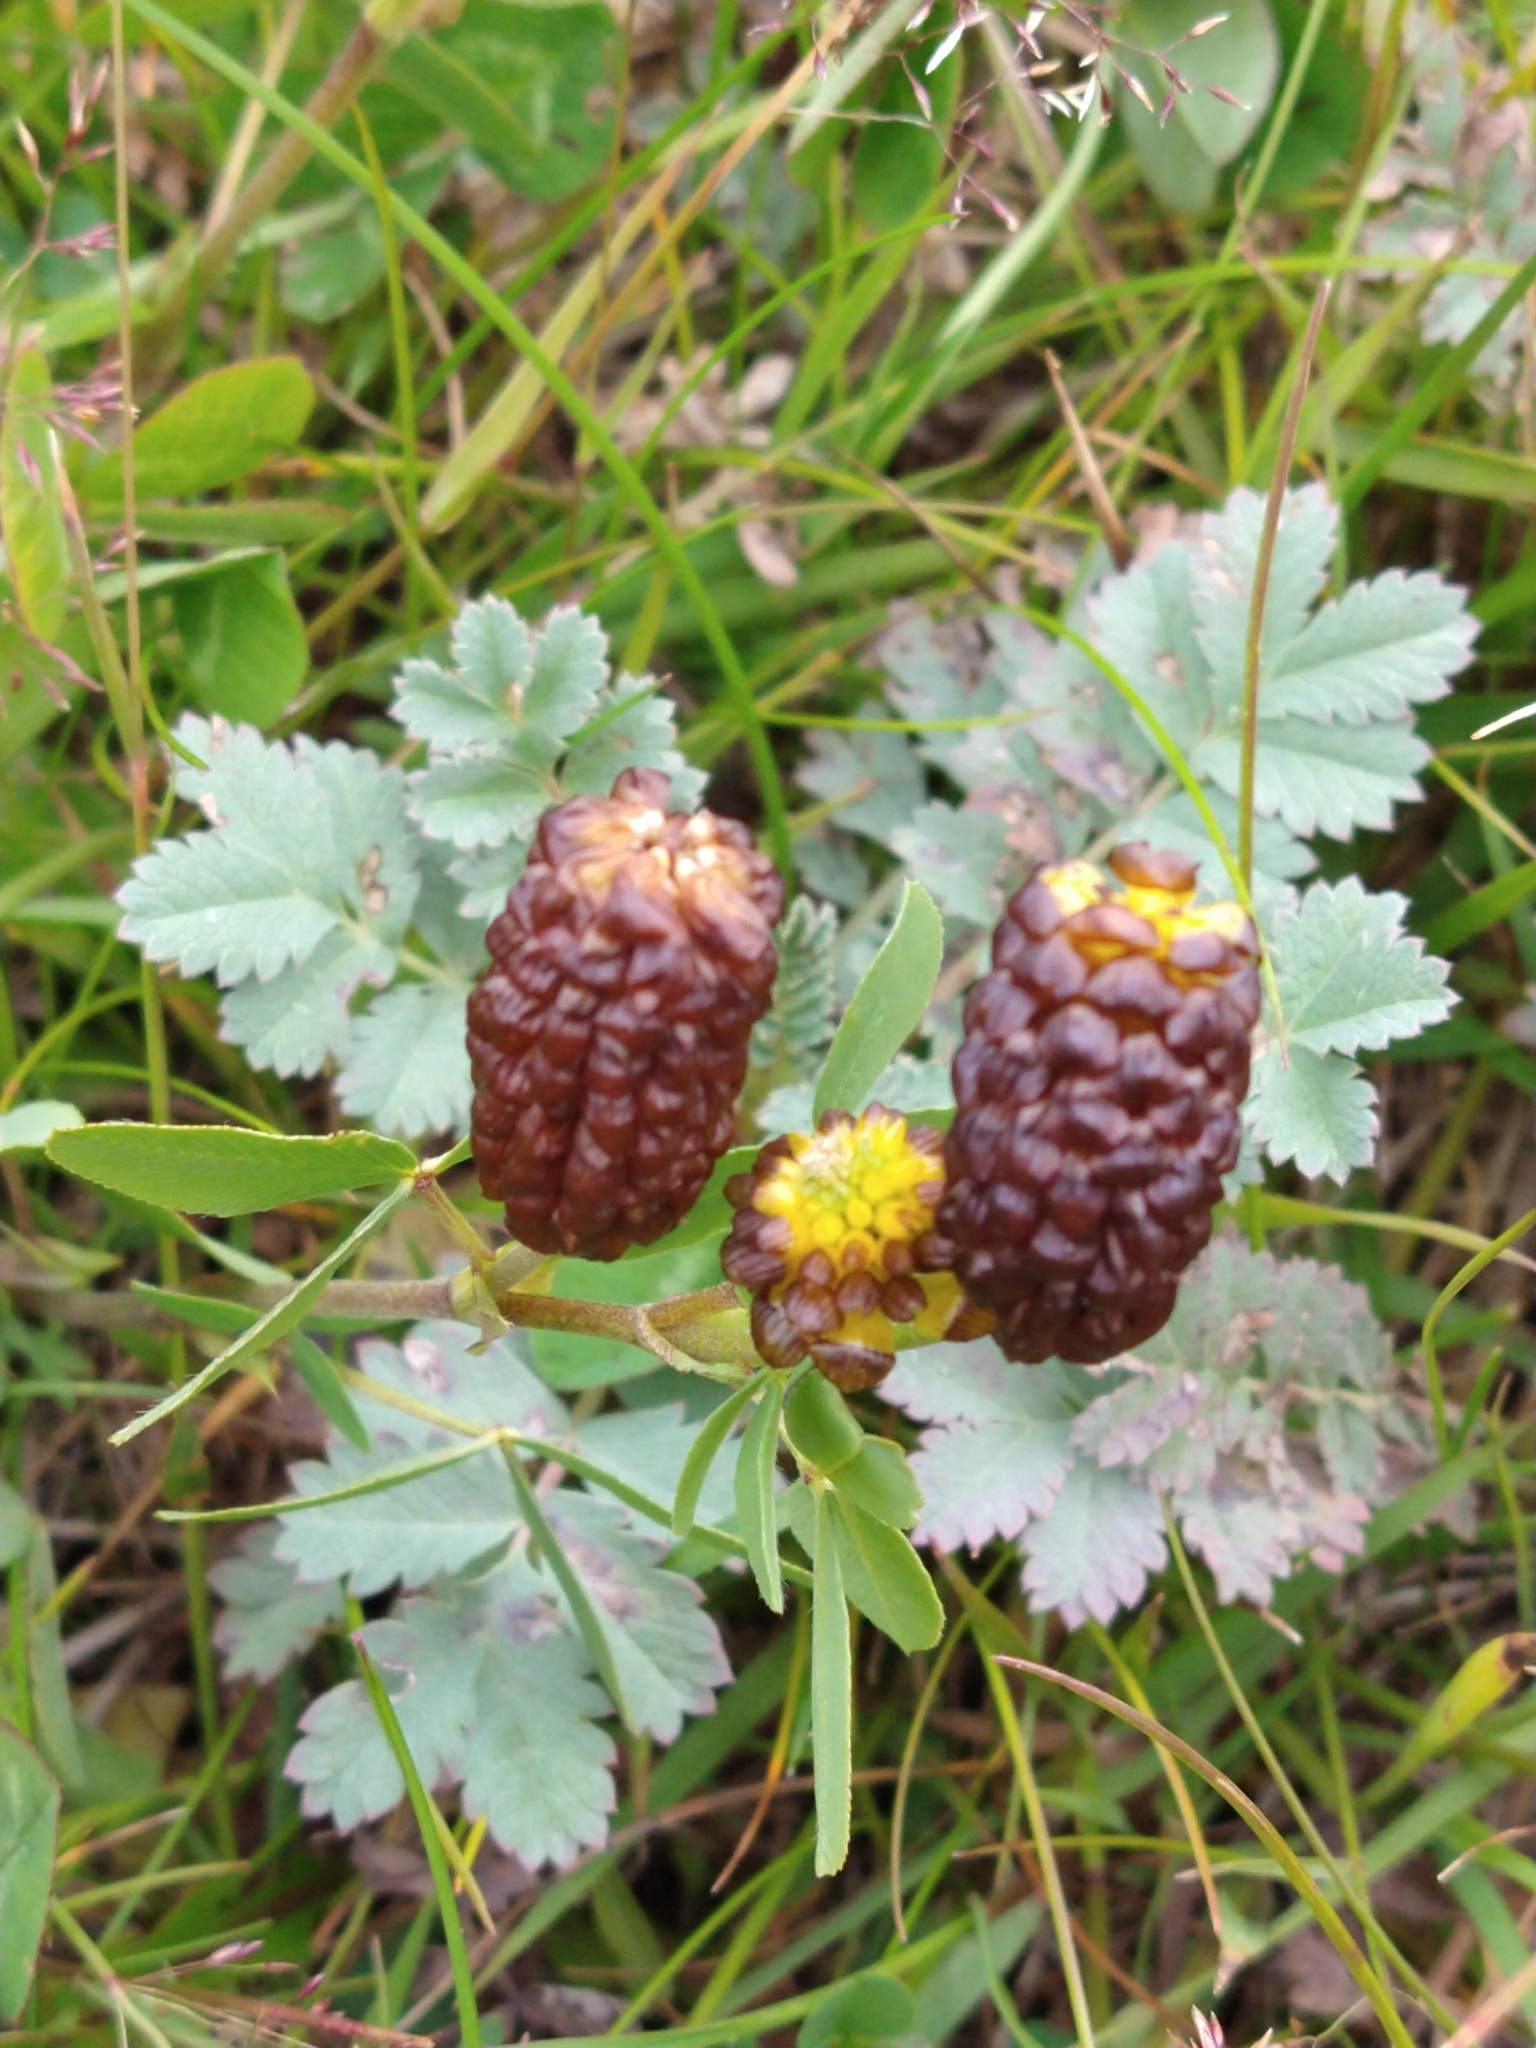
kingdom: Plantae
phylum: Tracheophyta
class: Magnoliopsida
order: Fabales
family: Fabaceae
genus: Trifolium
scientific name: Trifolium spadiceum
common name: Brown moor clover
